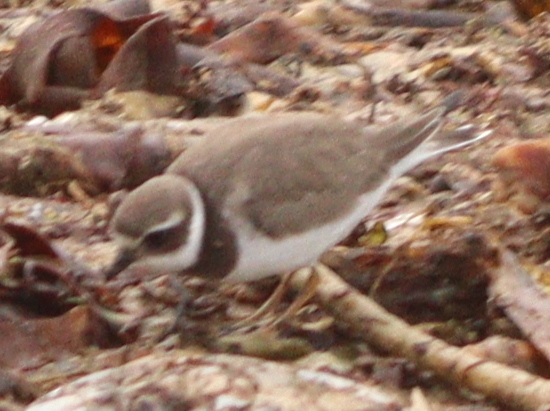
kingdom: Animalia
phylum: Chordata
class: Aves
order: Charadriiformes
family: Charadriidae
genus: Charadrius
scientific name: Charadrius hiaticula
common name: Common ringed plover
